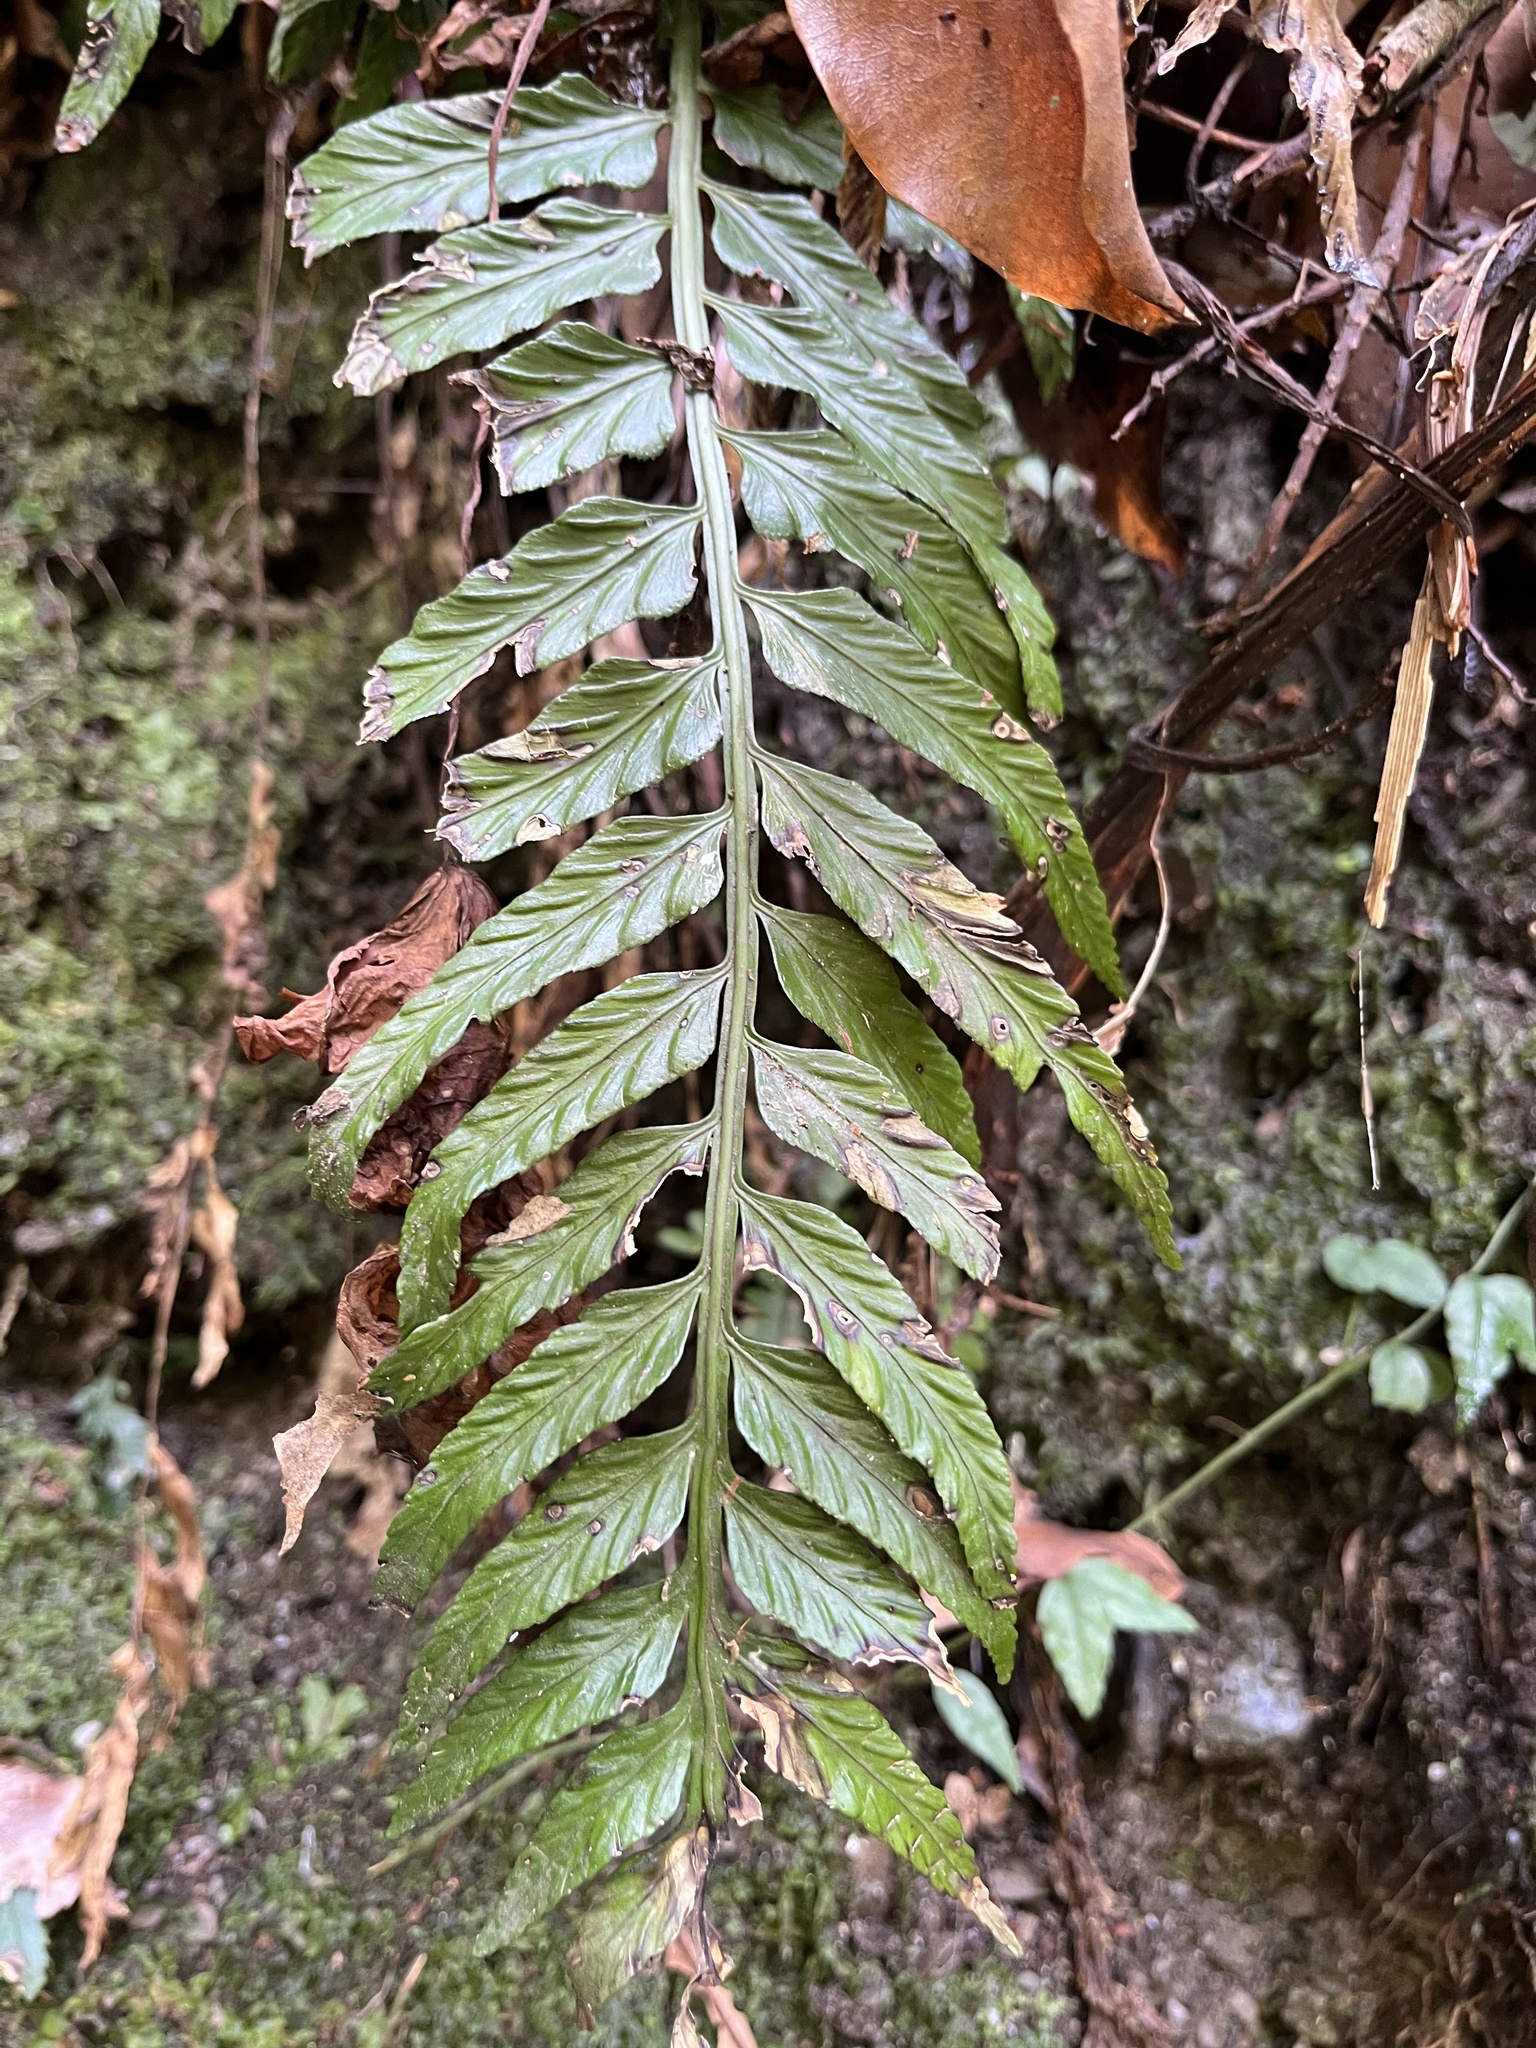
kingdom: Plantae
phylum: Tracheophyta
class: Polypodiopsida
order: Polypodiales
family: Aspleniaceae
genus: Asplenium
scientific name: Asplenium wrightii
